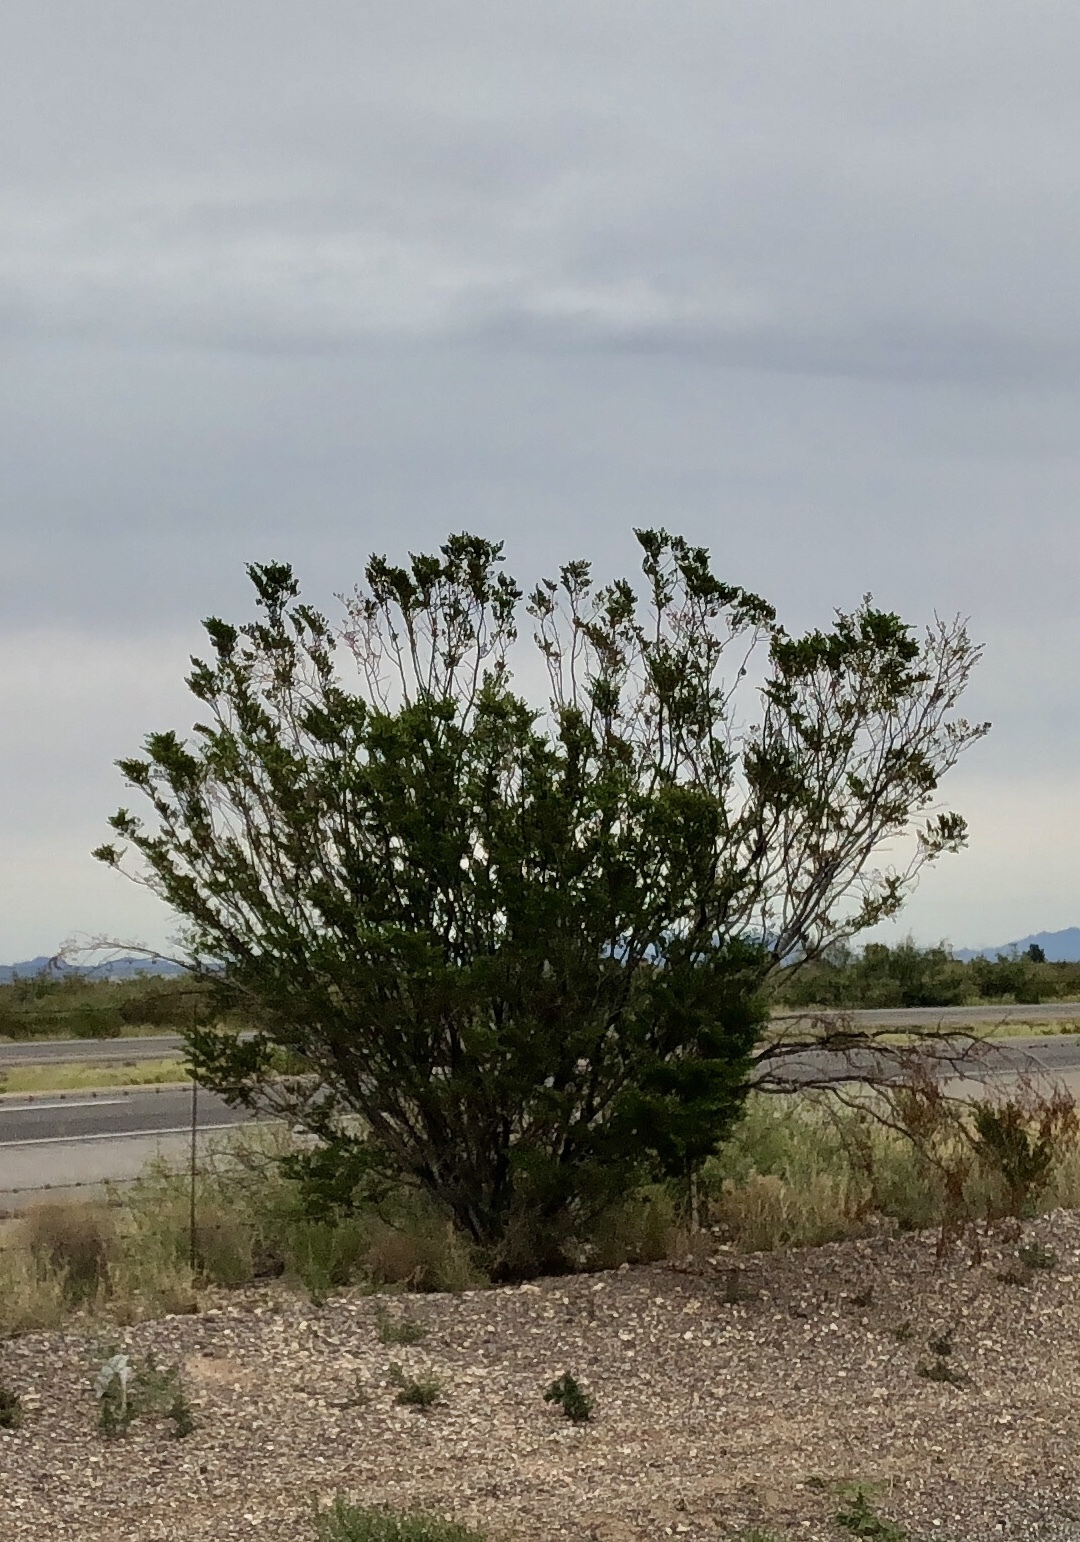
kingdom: Plantae
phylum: Tracheophyta
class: Magnoliopsida
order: Zygophyllales
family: Zygophyllaceae
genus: Larrea
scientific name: Larrea tridentata
